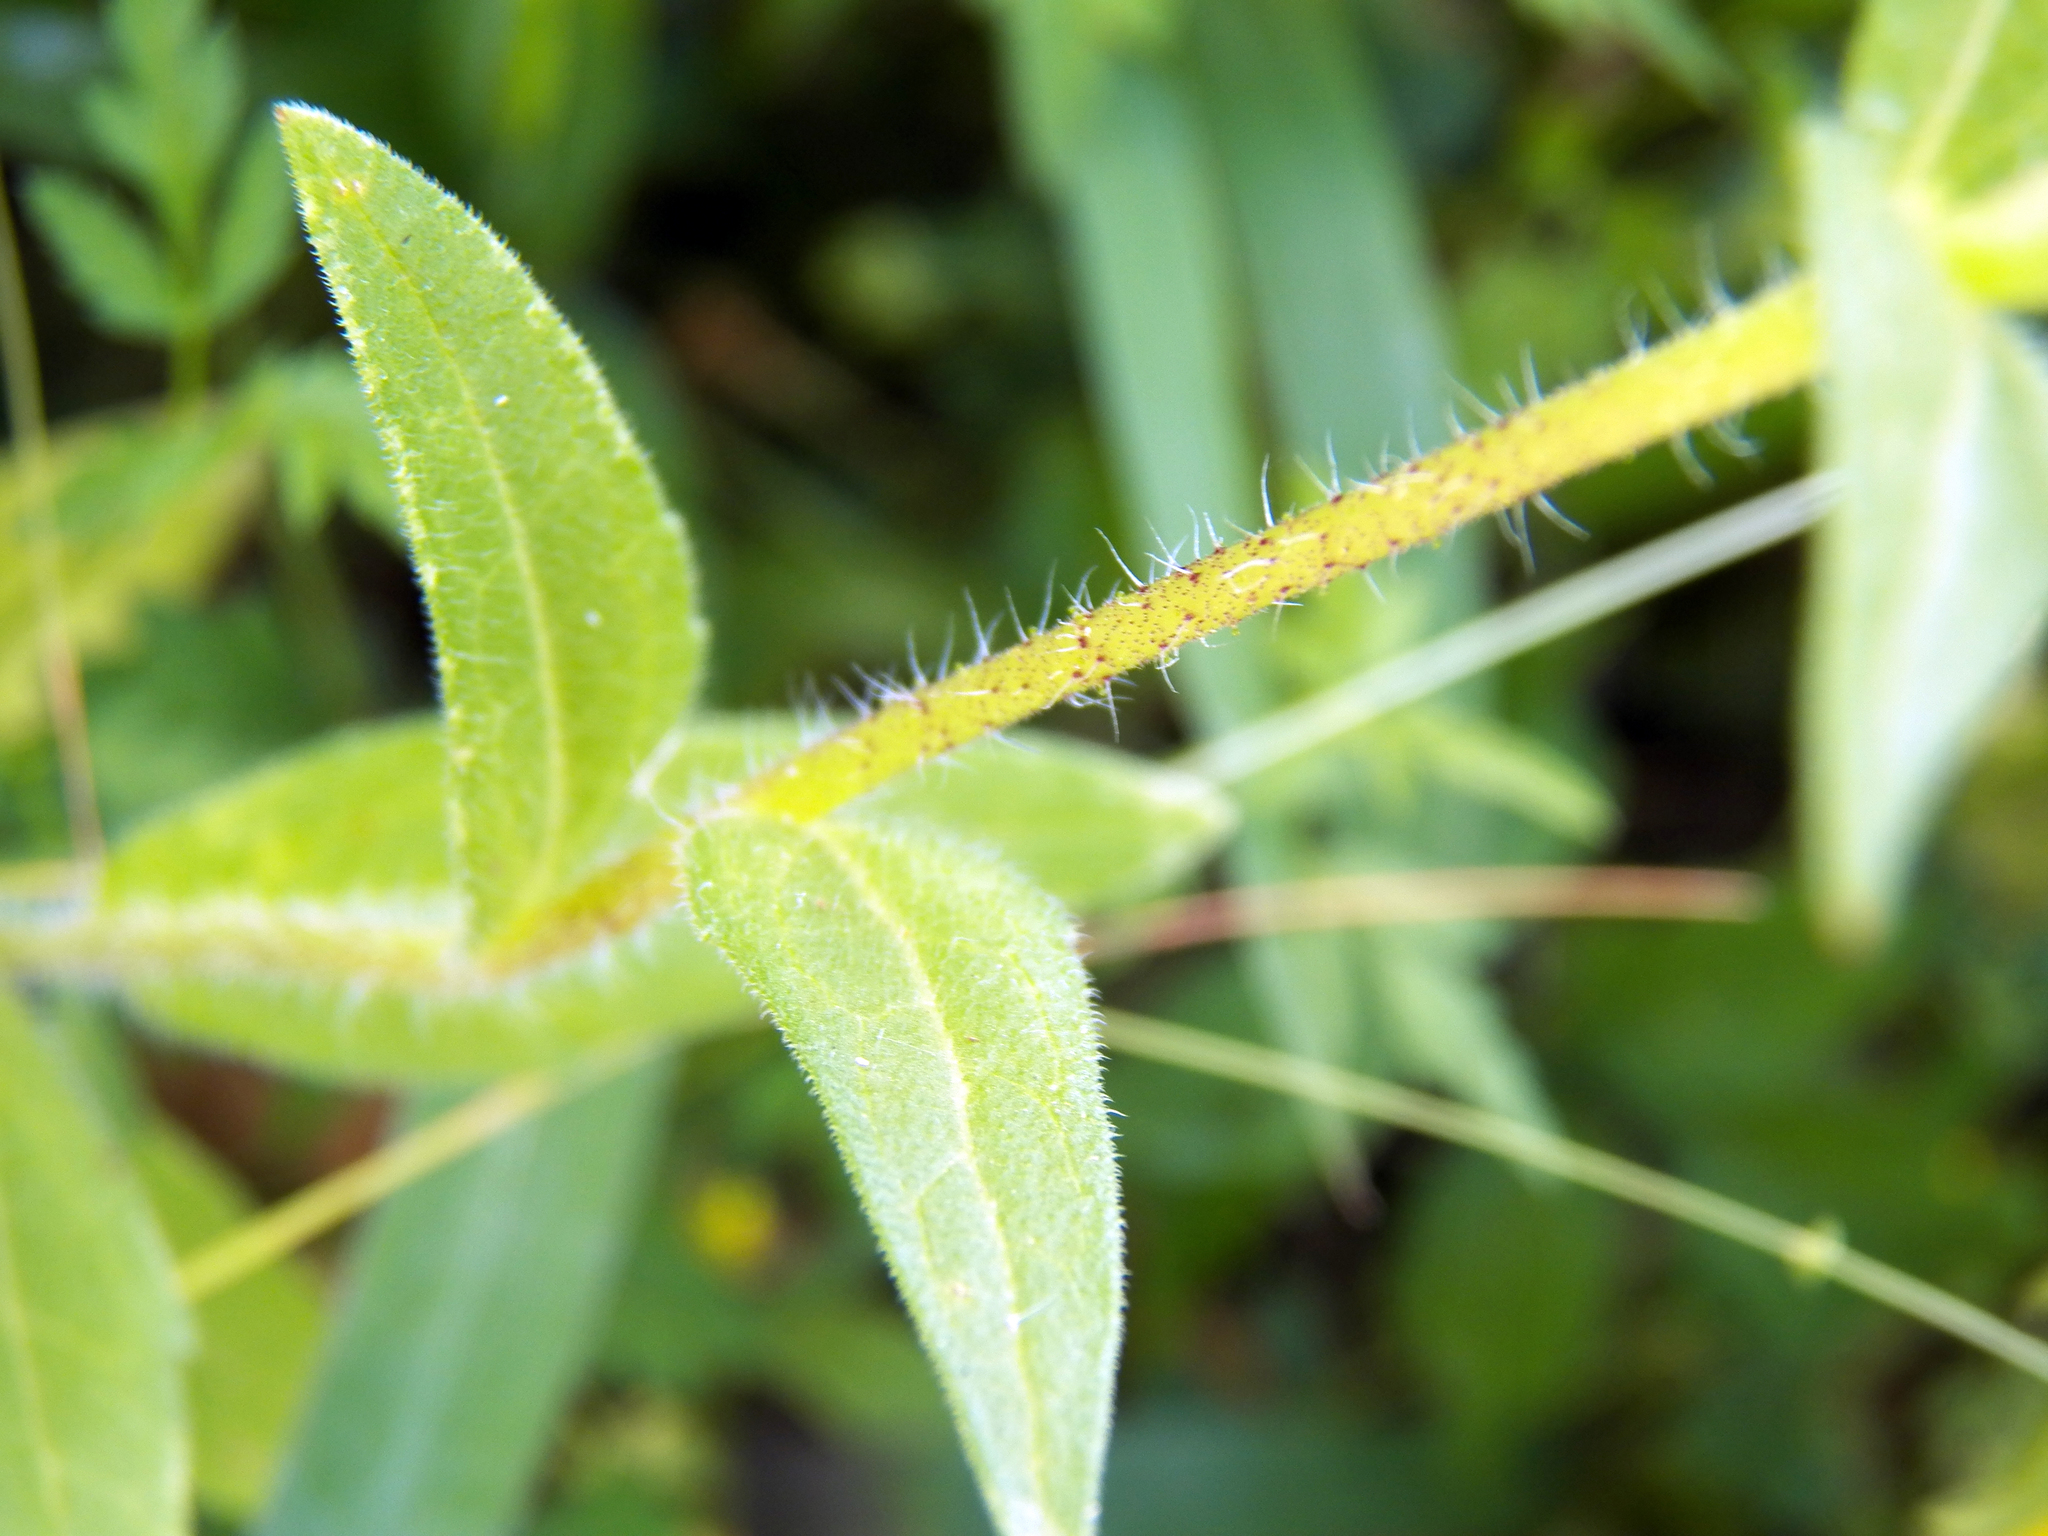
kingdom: Plantae
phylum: Tracheophyta
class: Magnoliopsida
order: Asterales
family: Asteraceae
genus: Lindheimera
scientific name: Lindheimera texana
